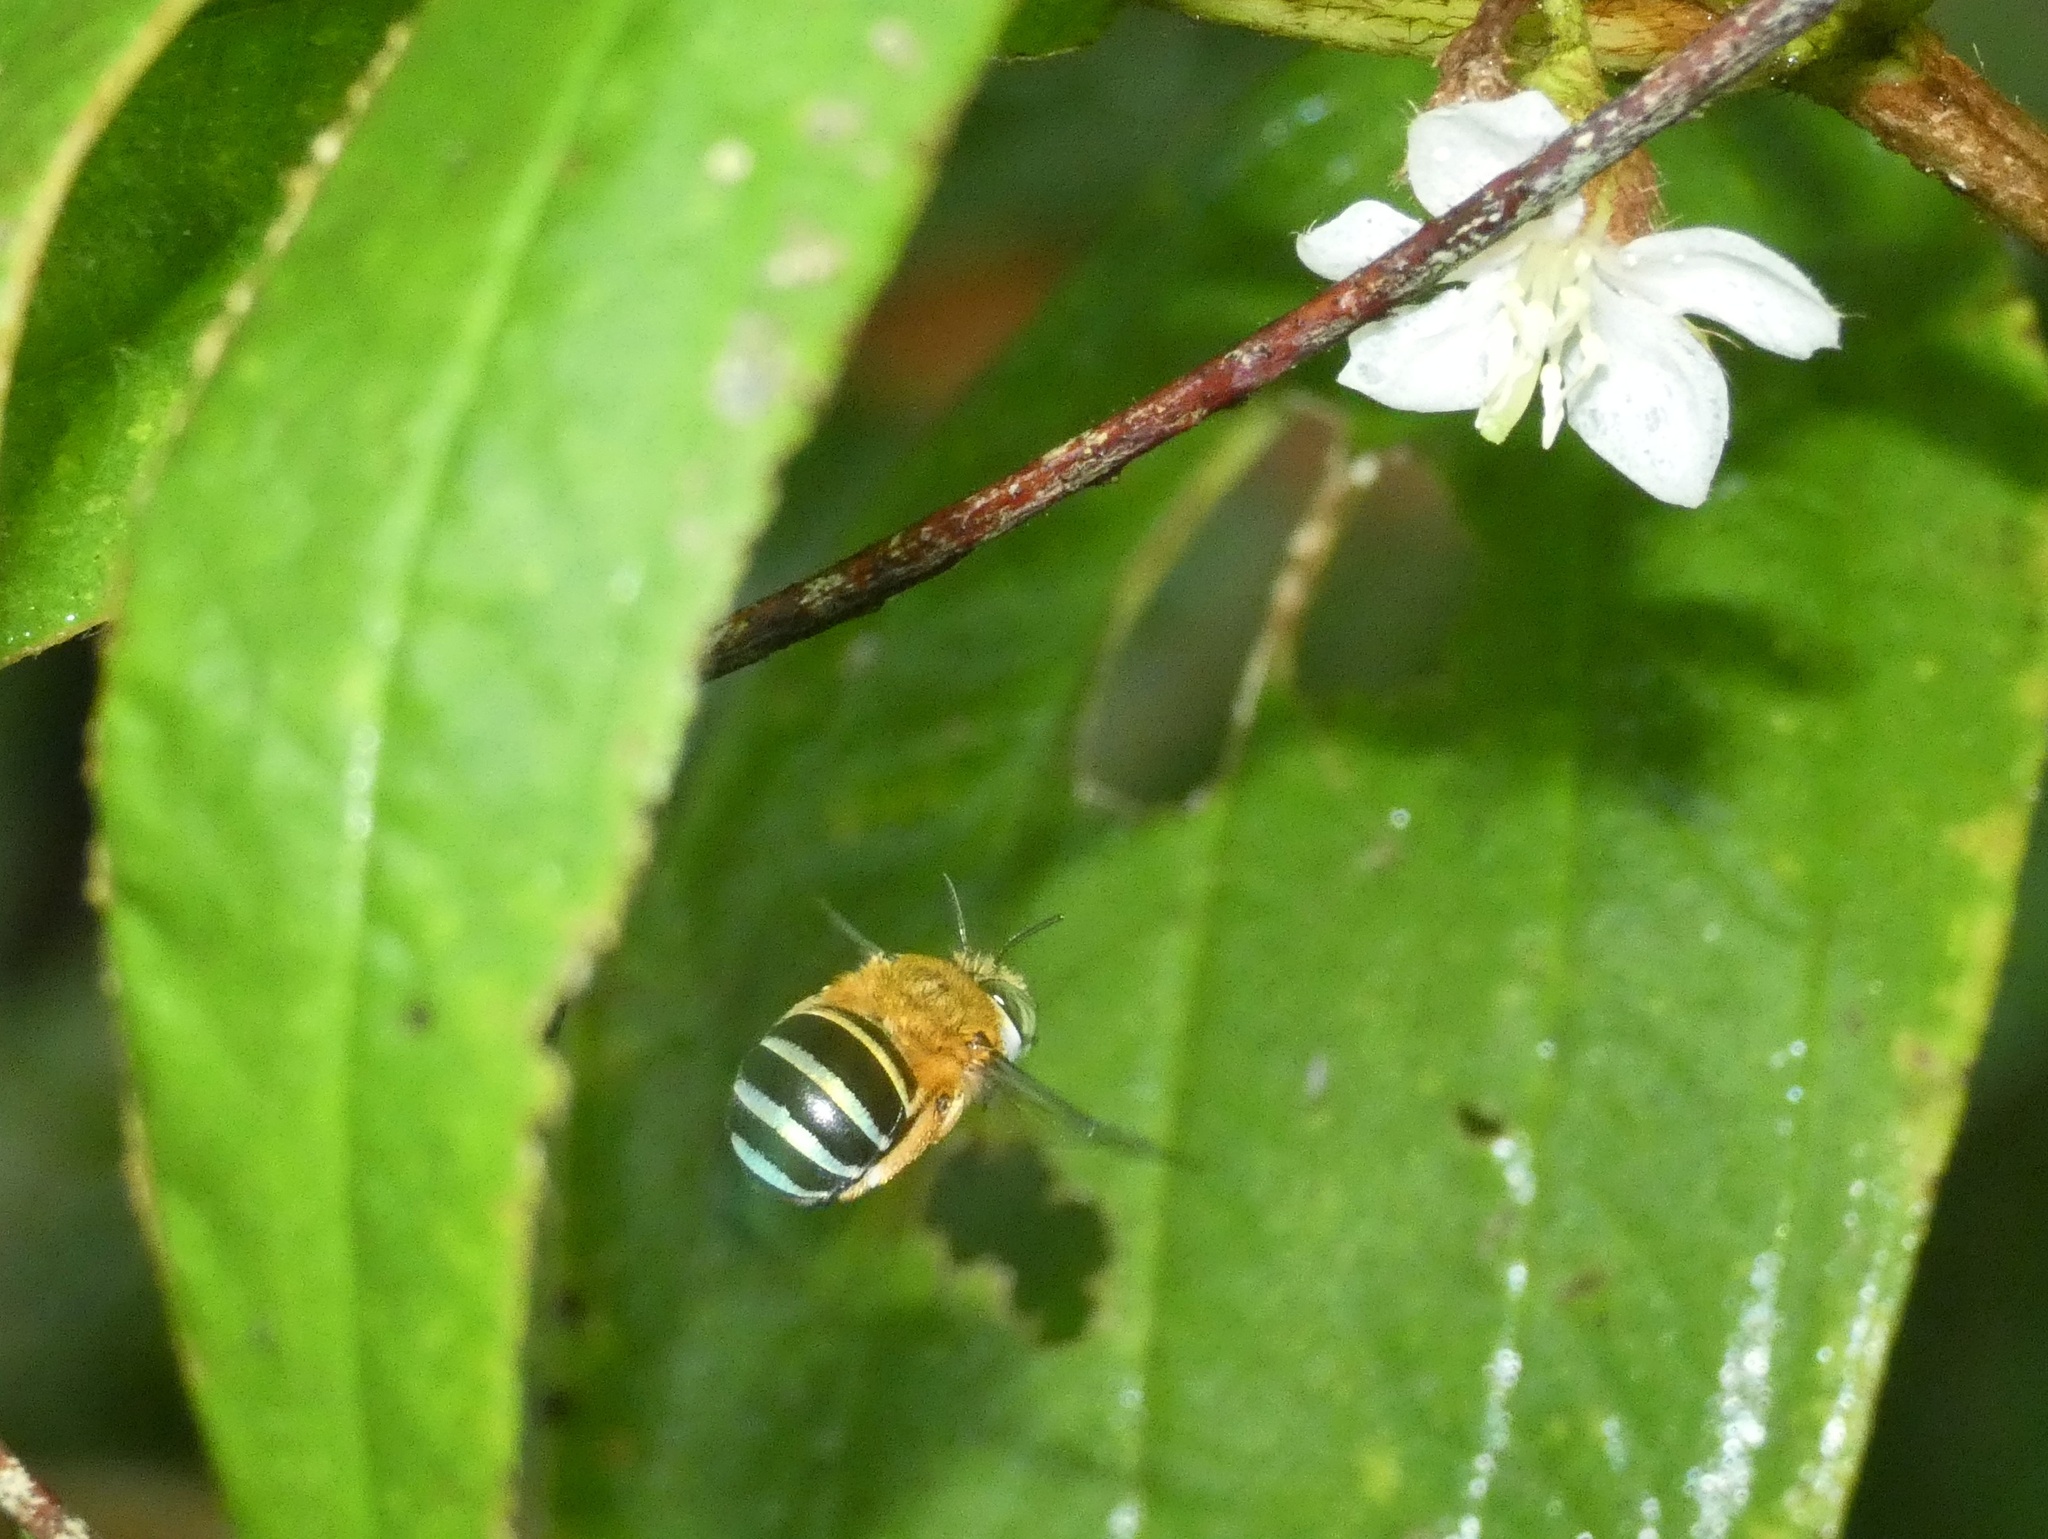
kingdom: Animalia
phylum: Arthropoda
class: Insecta
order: Hymenoptera
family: Apidae
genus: Amegilla
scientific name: Amegilla cingulata
